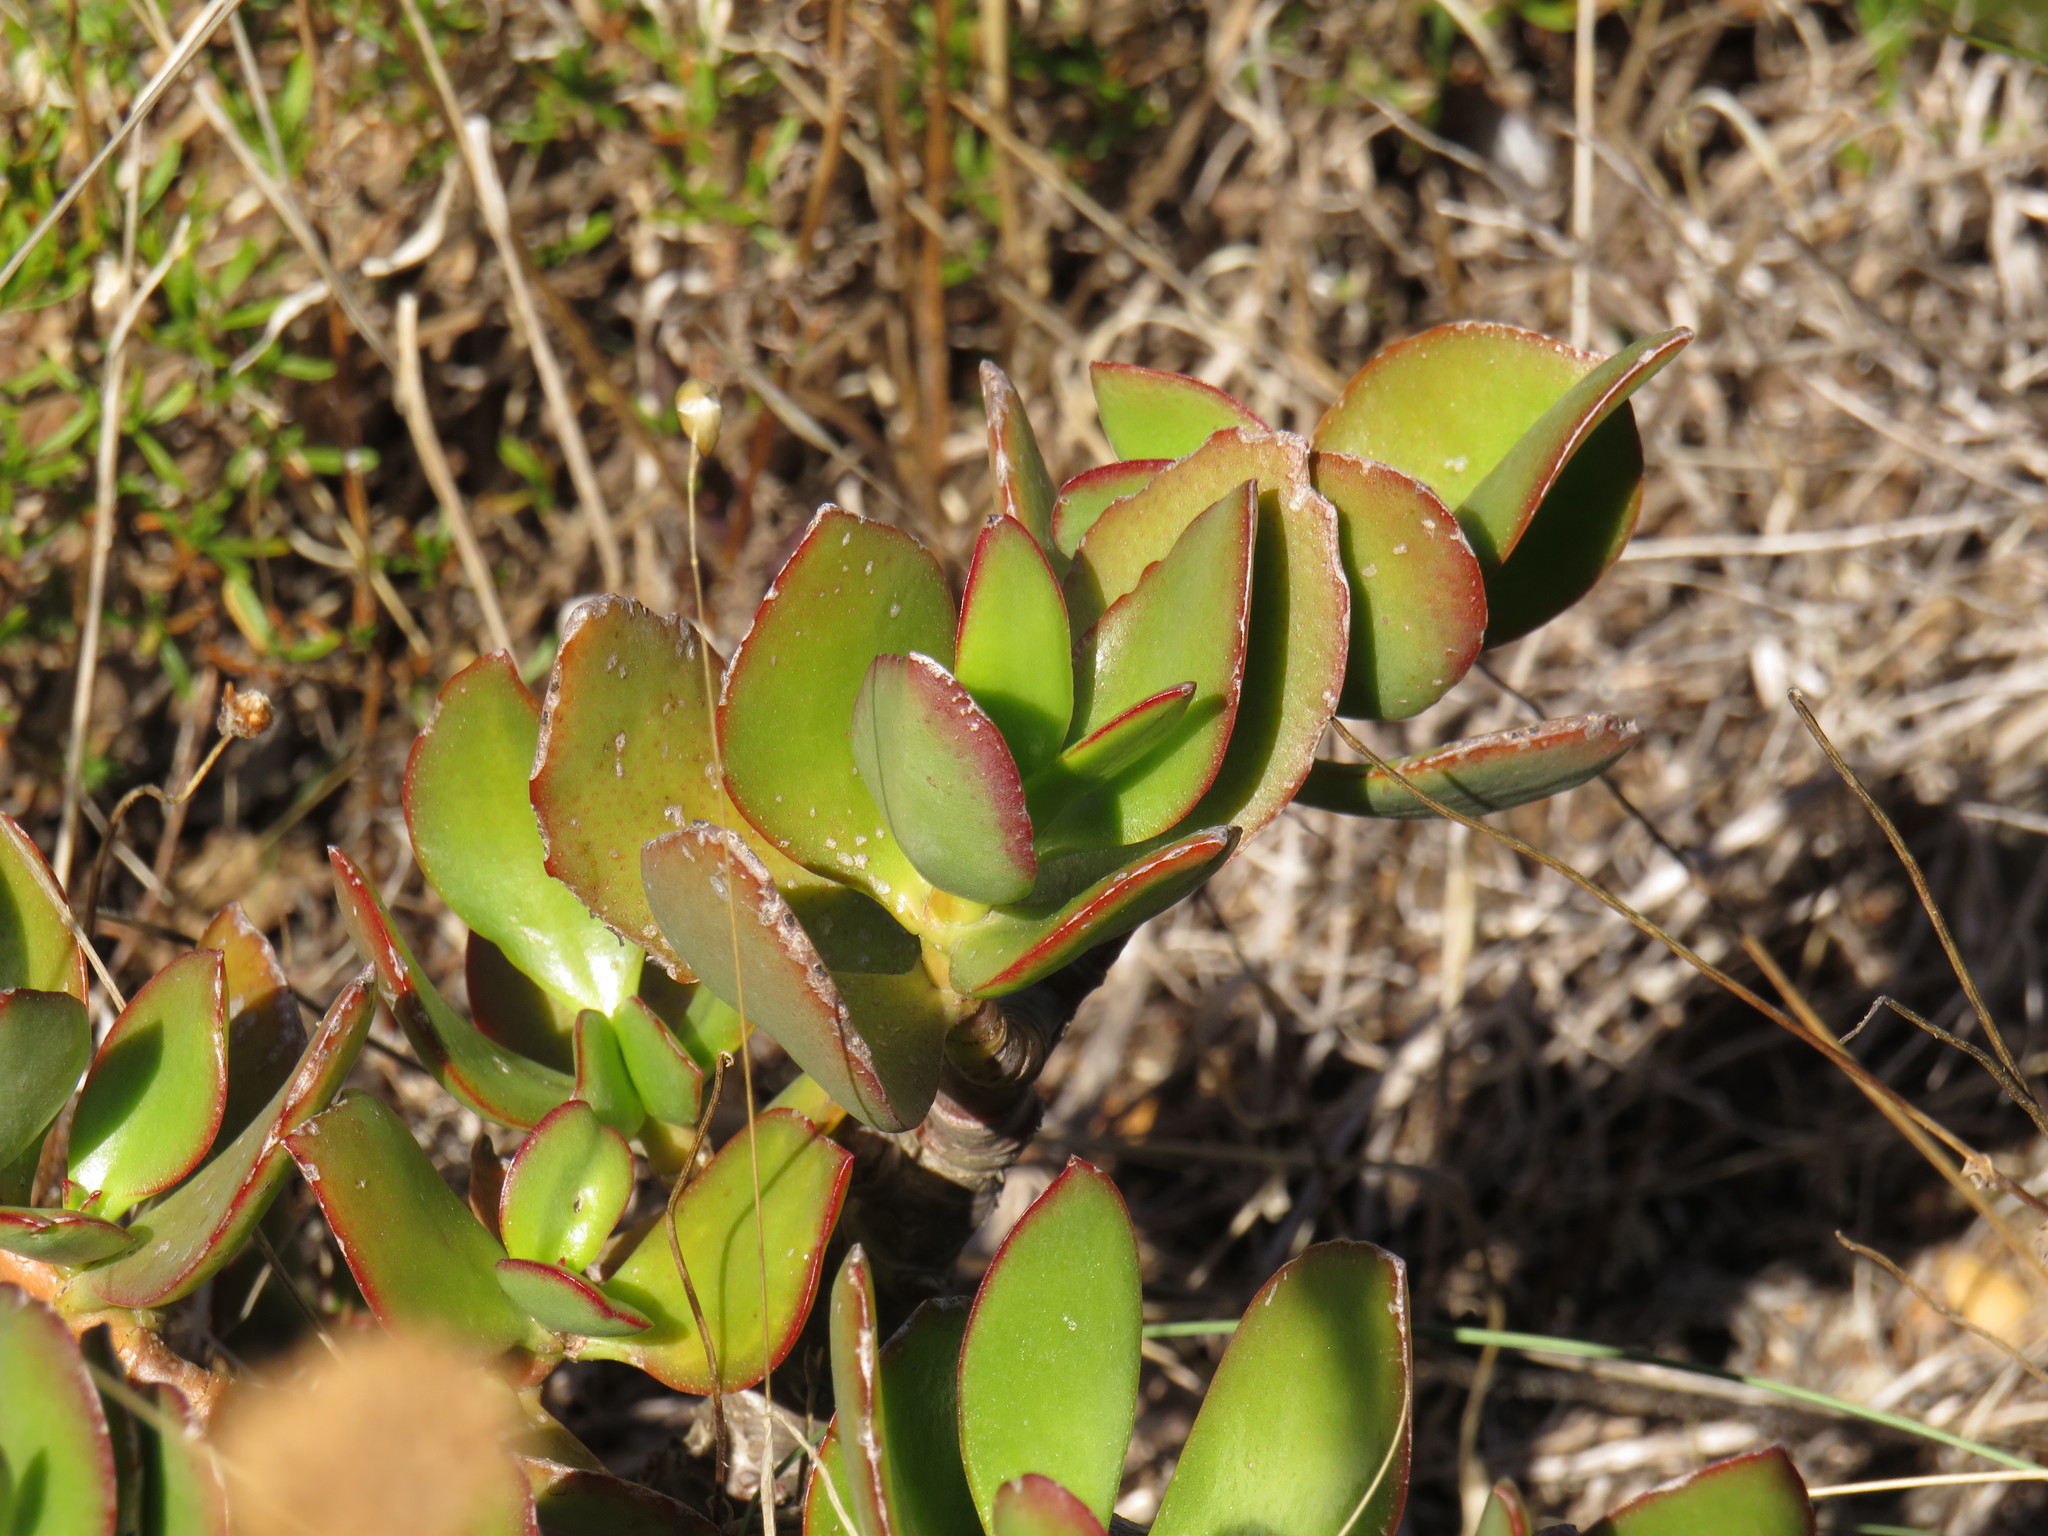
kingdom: Plantae
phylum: Tracheophyta
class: Magnoliopsida
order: Saxifragales
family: Crassulaceae
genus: Crassula
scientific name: Crassula ovata
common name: Jade plant
